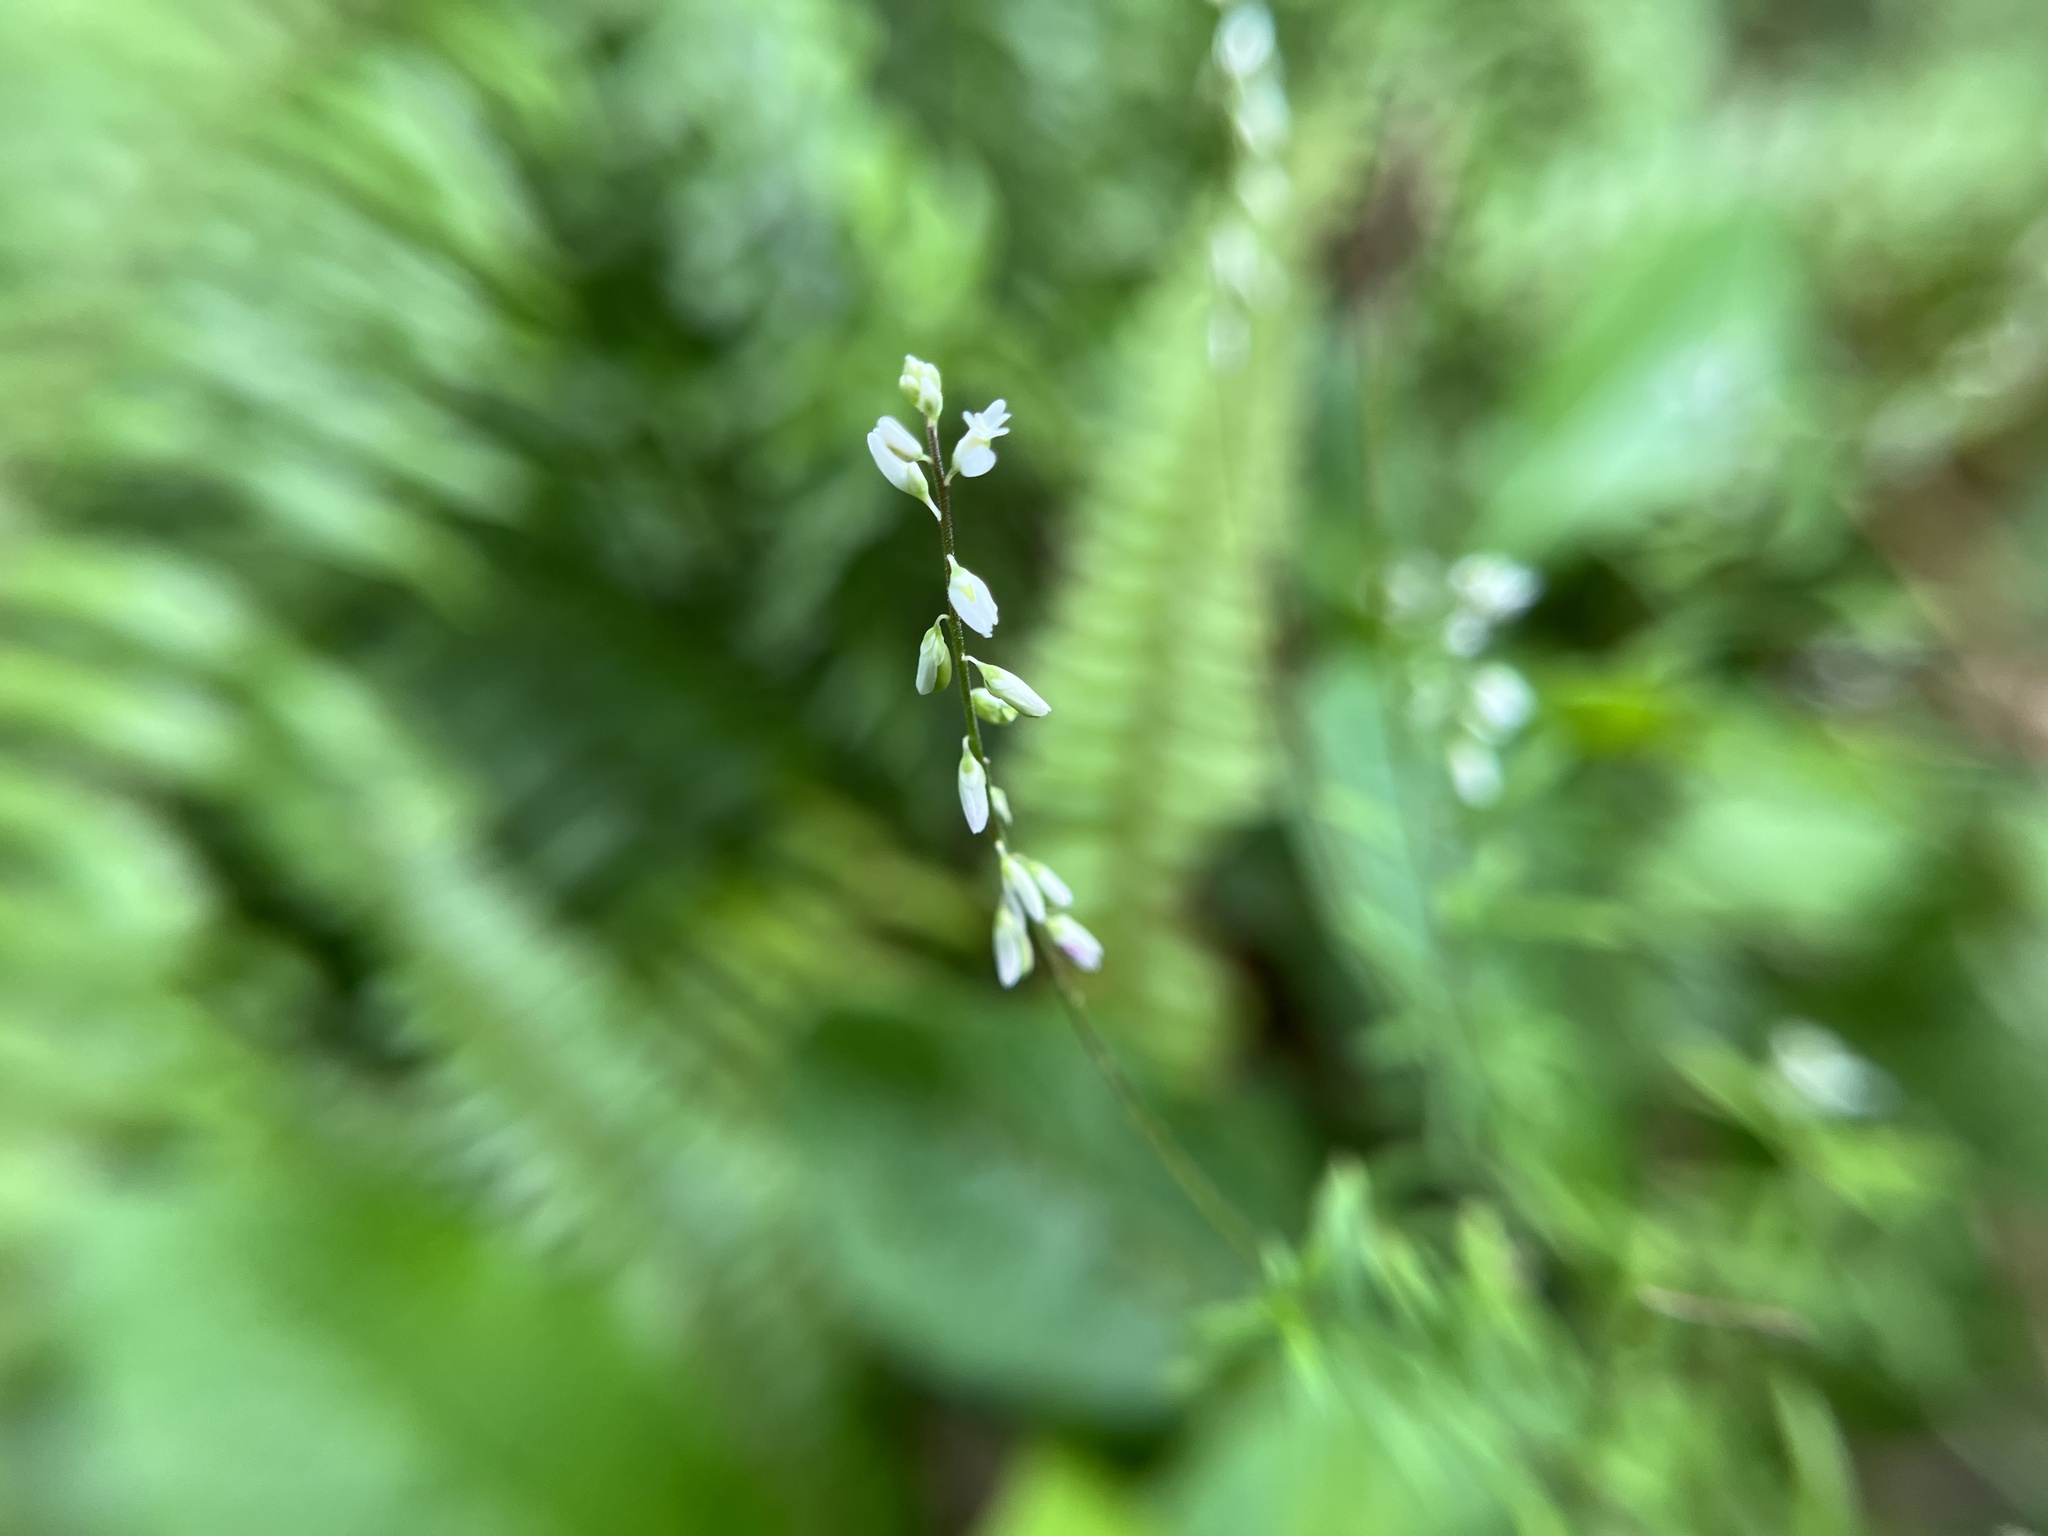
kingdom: Plantae
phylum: Tracheophyta
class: Magnoliopsida
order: Fabales
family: Polygalaceae
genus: Polygala
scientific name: Polygala paniculata
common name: Orosne
